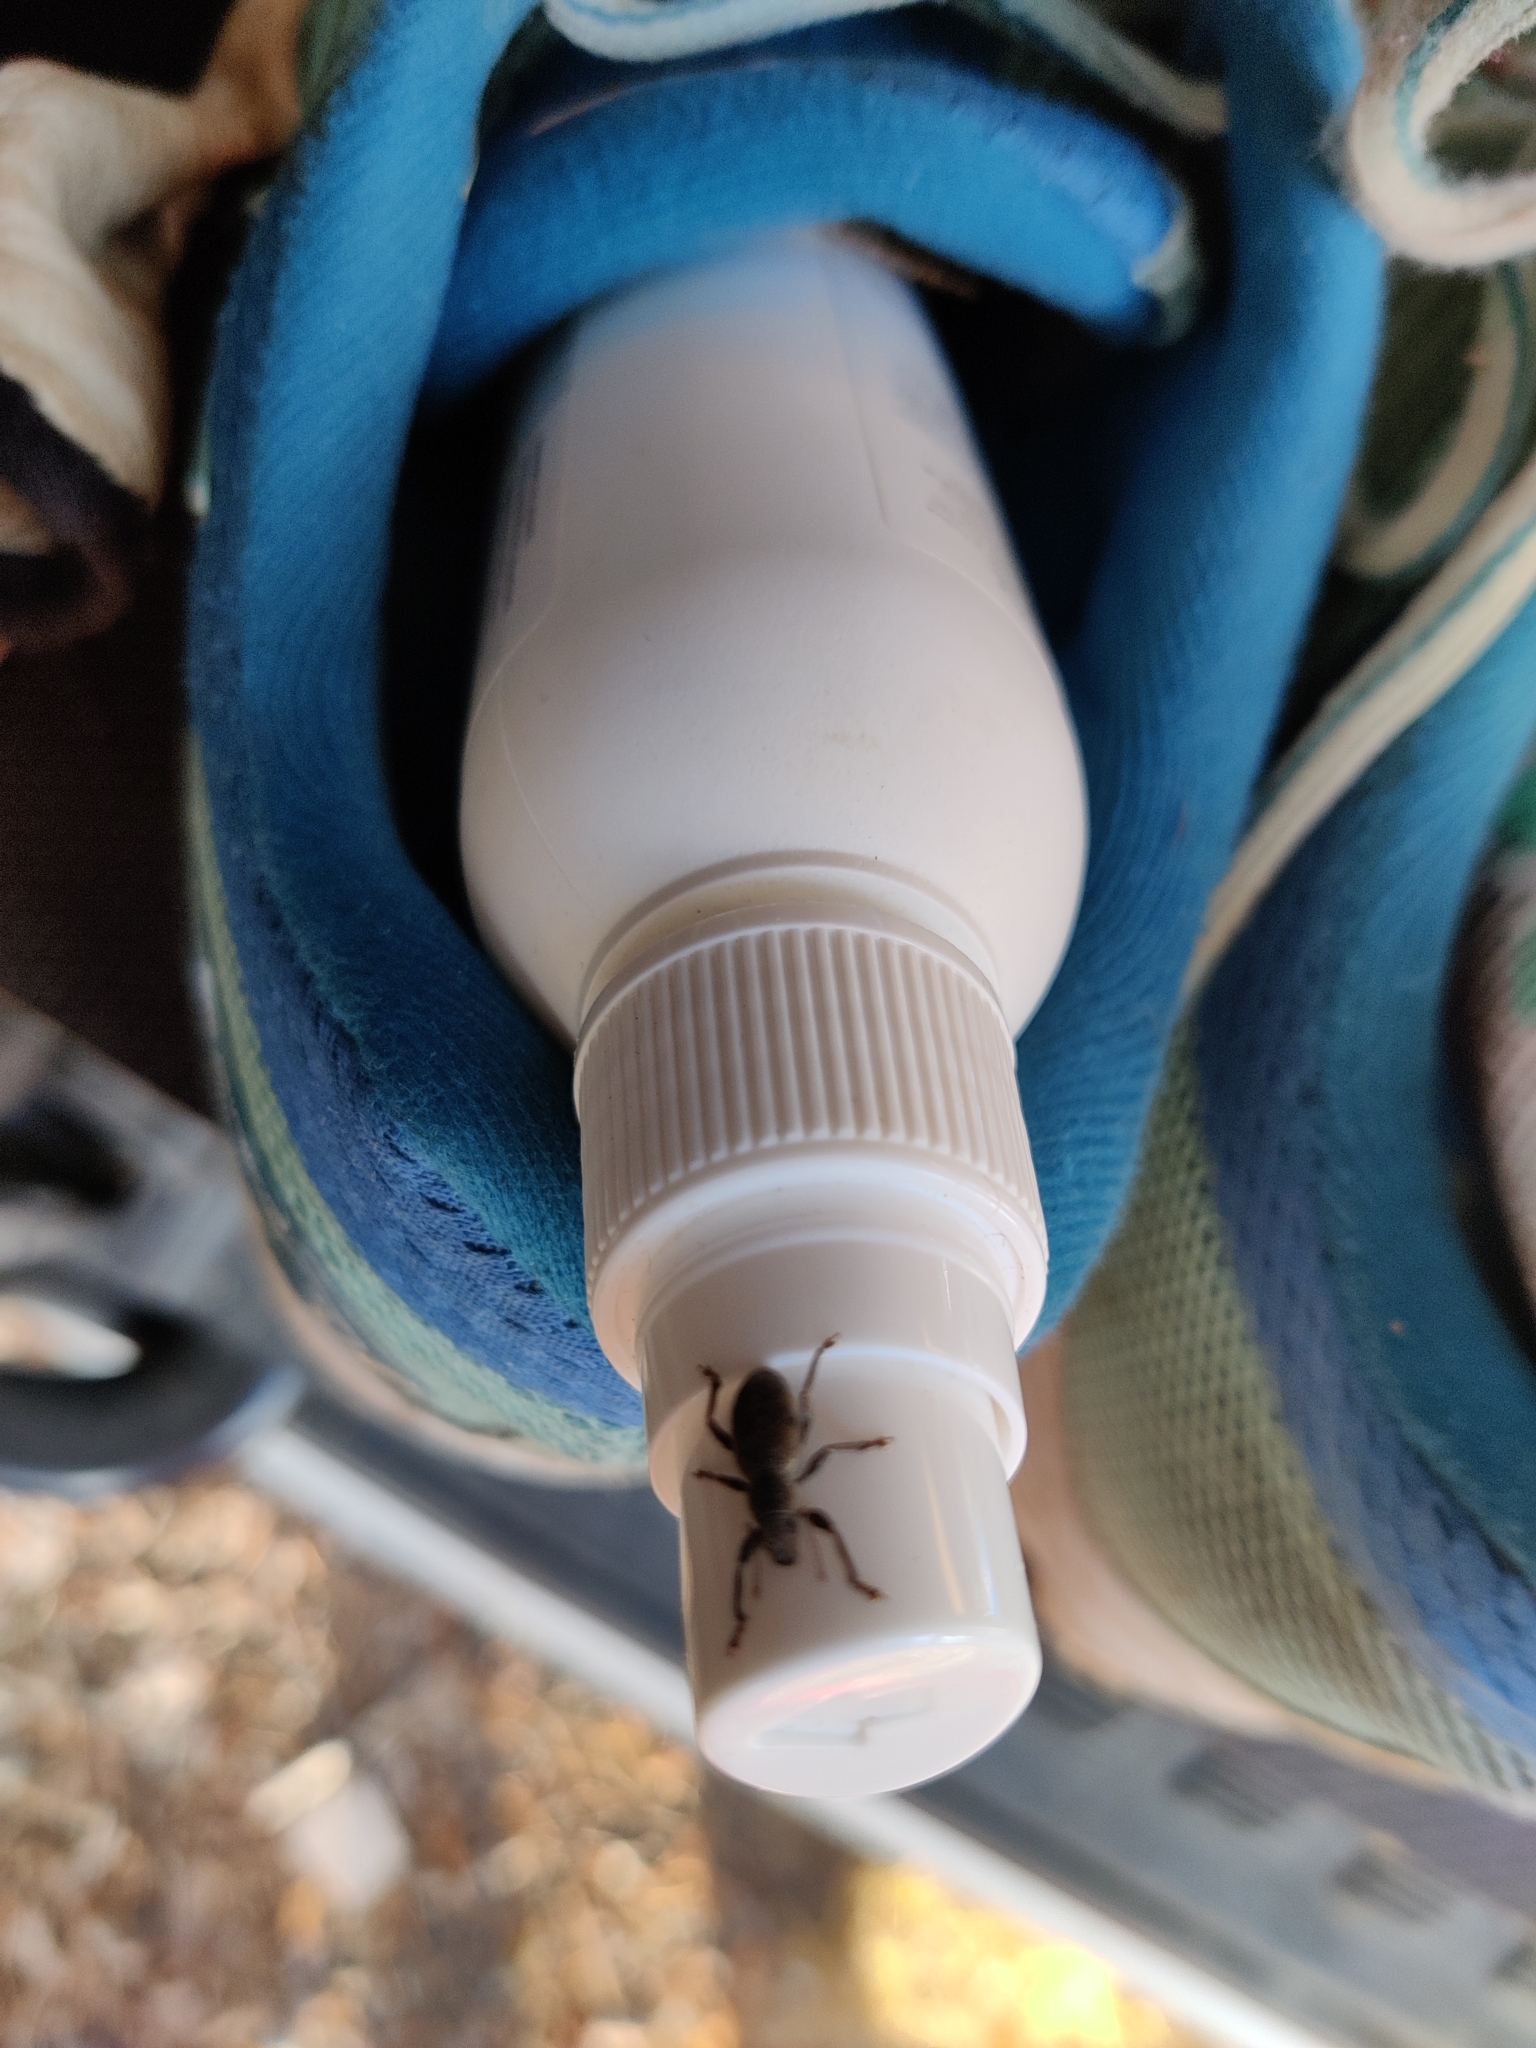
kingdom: Animalia
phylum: Arthropoda
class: Insecta
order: Coleoptera
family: Curculionidae
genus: Brachyderes
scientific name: Brachyderes incanus
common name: Weevil
